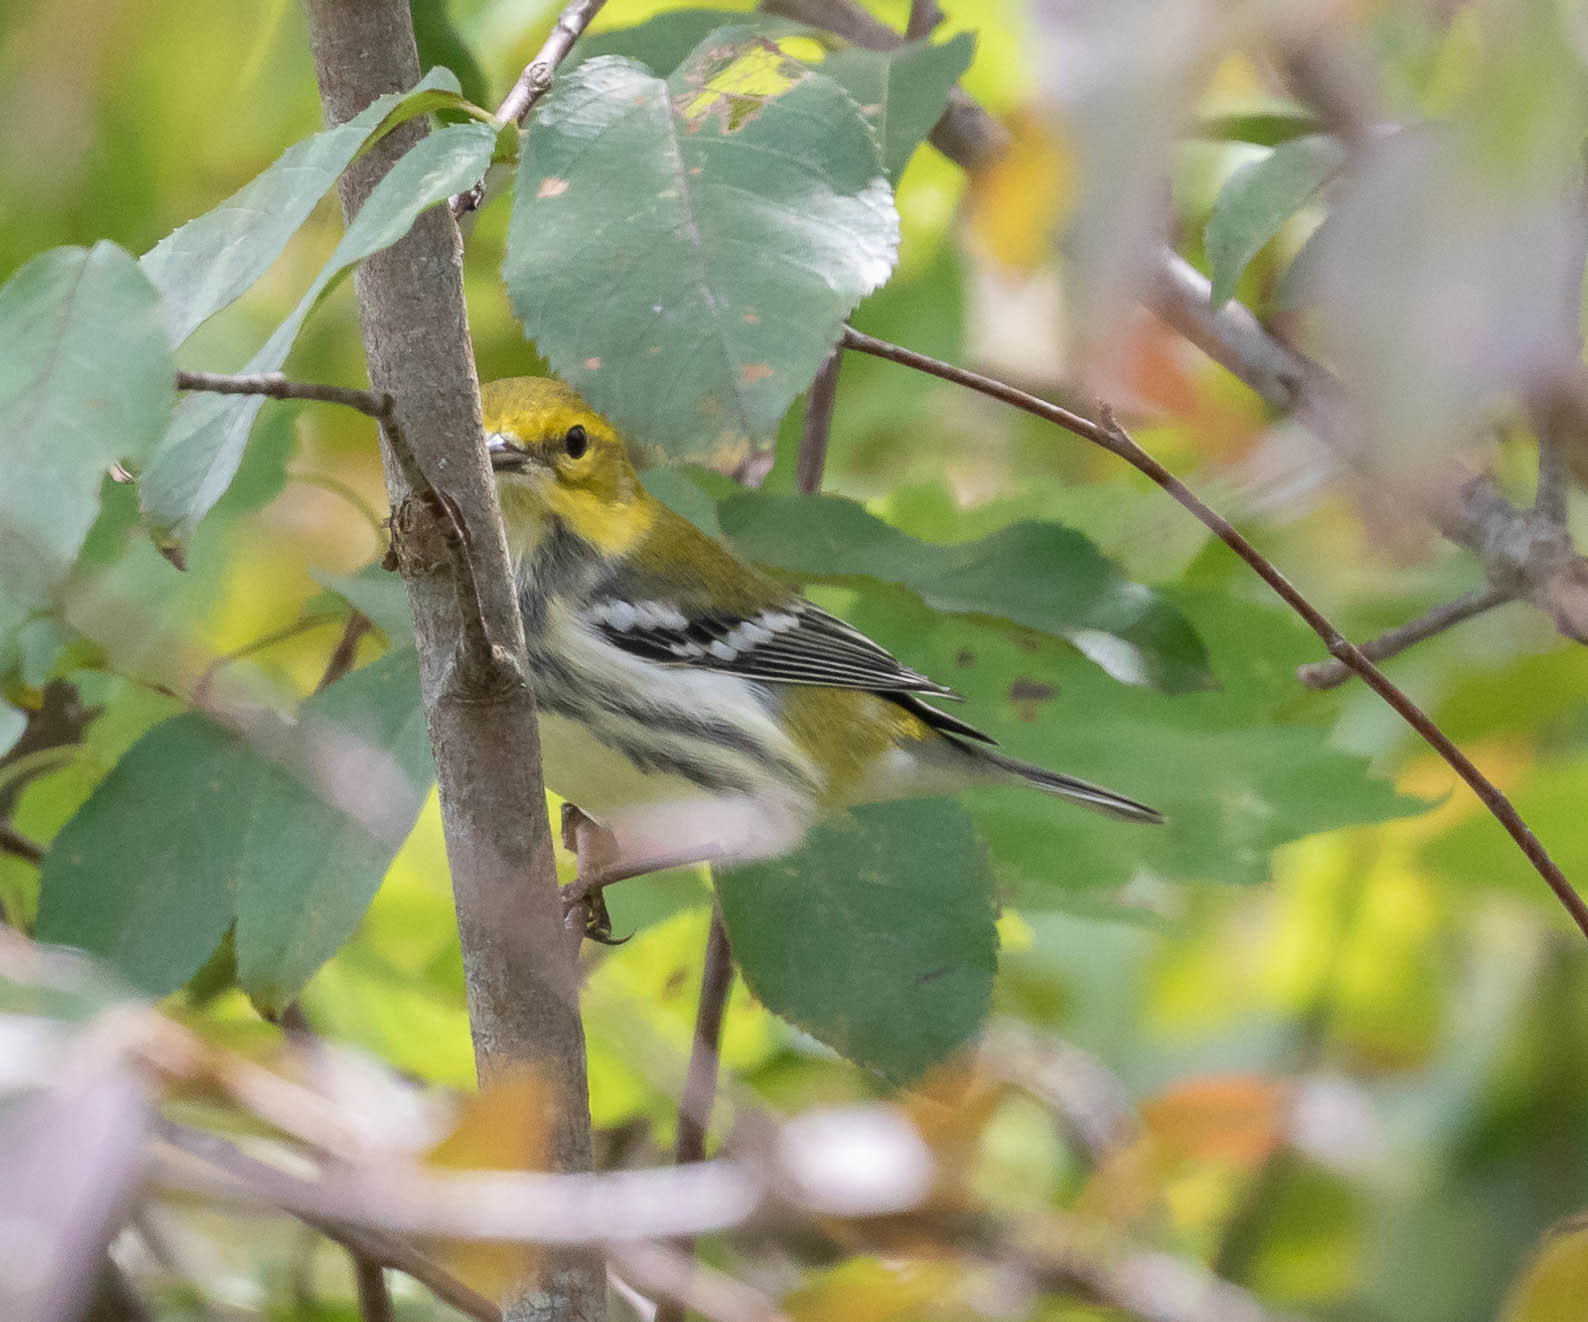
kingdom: Animalia
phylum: Chordata
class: Aves
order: Passeriformes
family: Parulidae
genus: Setophaga
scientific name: Setophaga virens
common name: Black-throated green warbler
